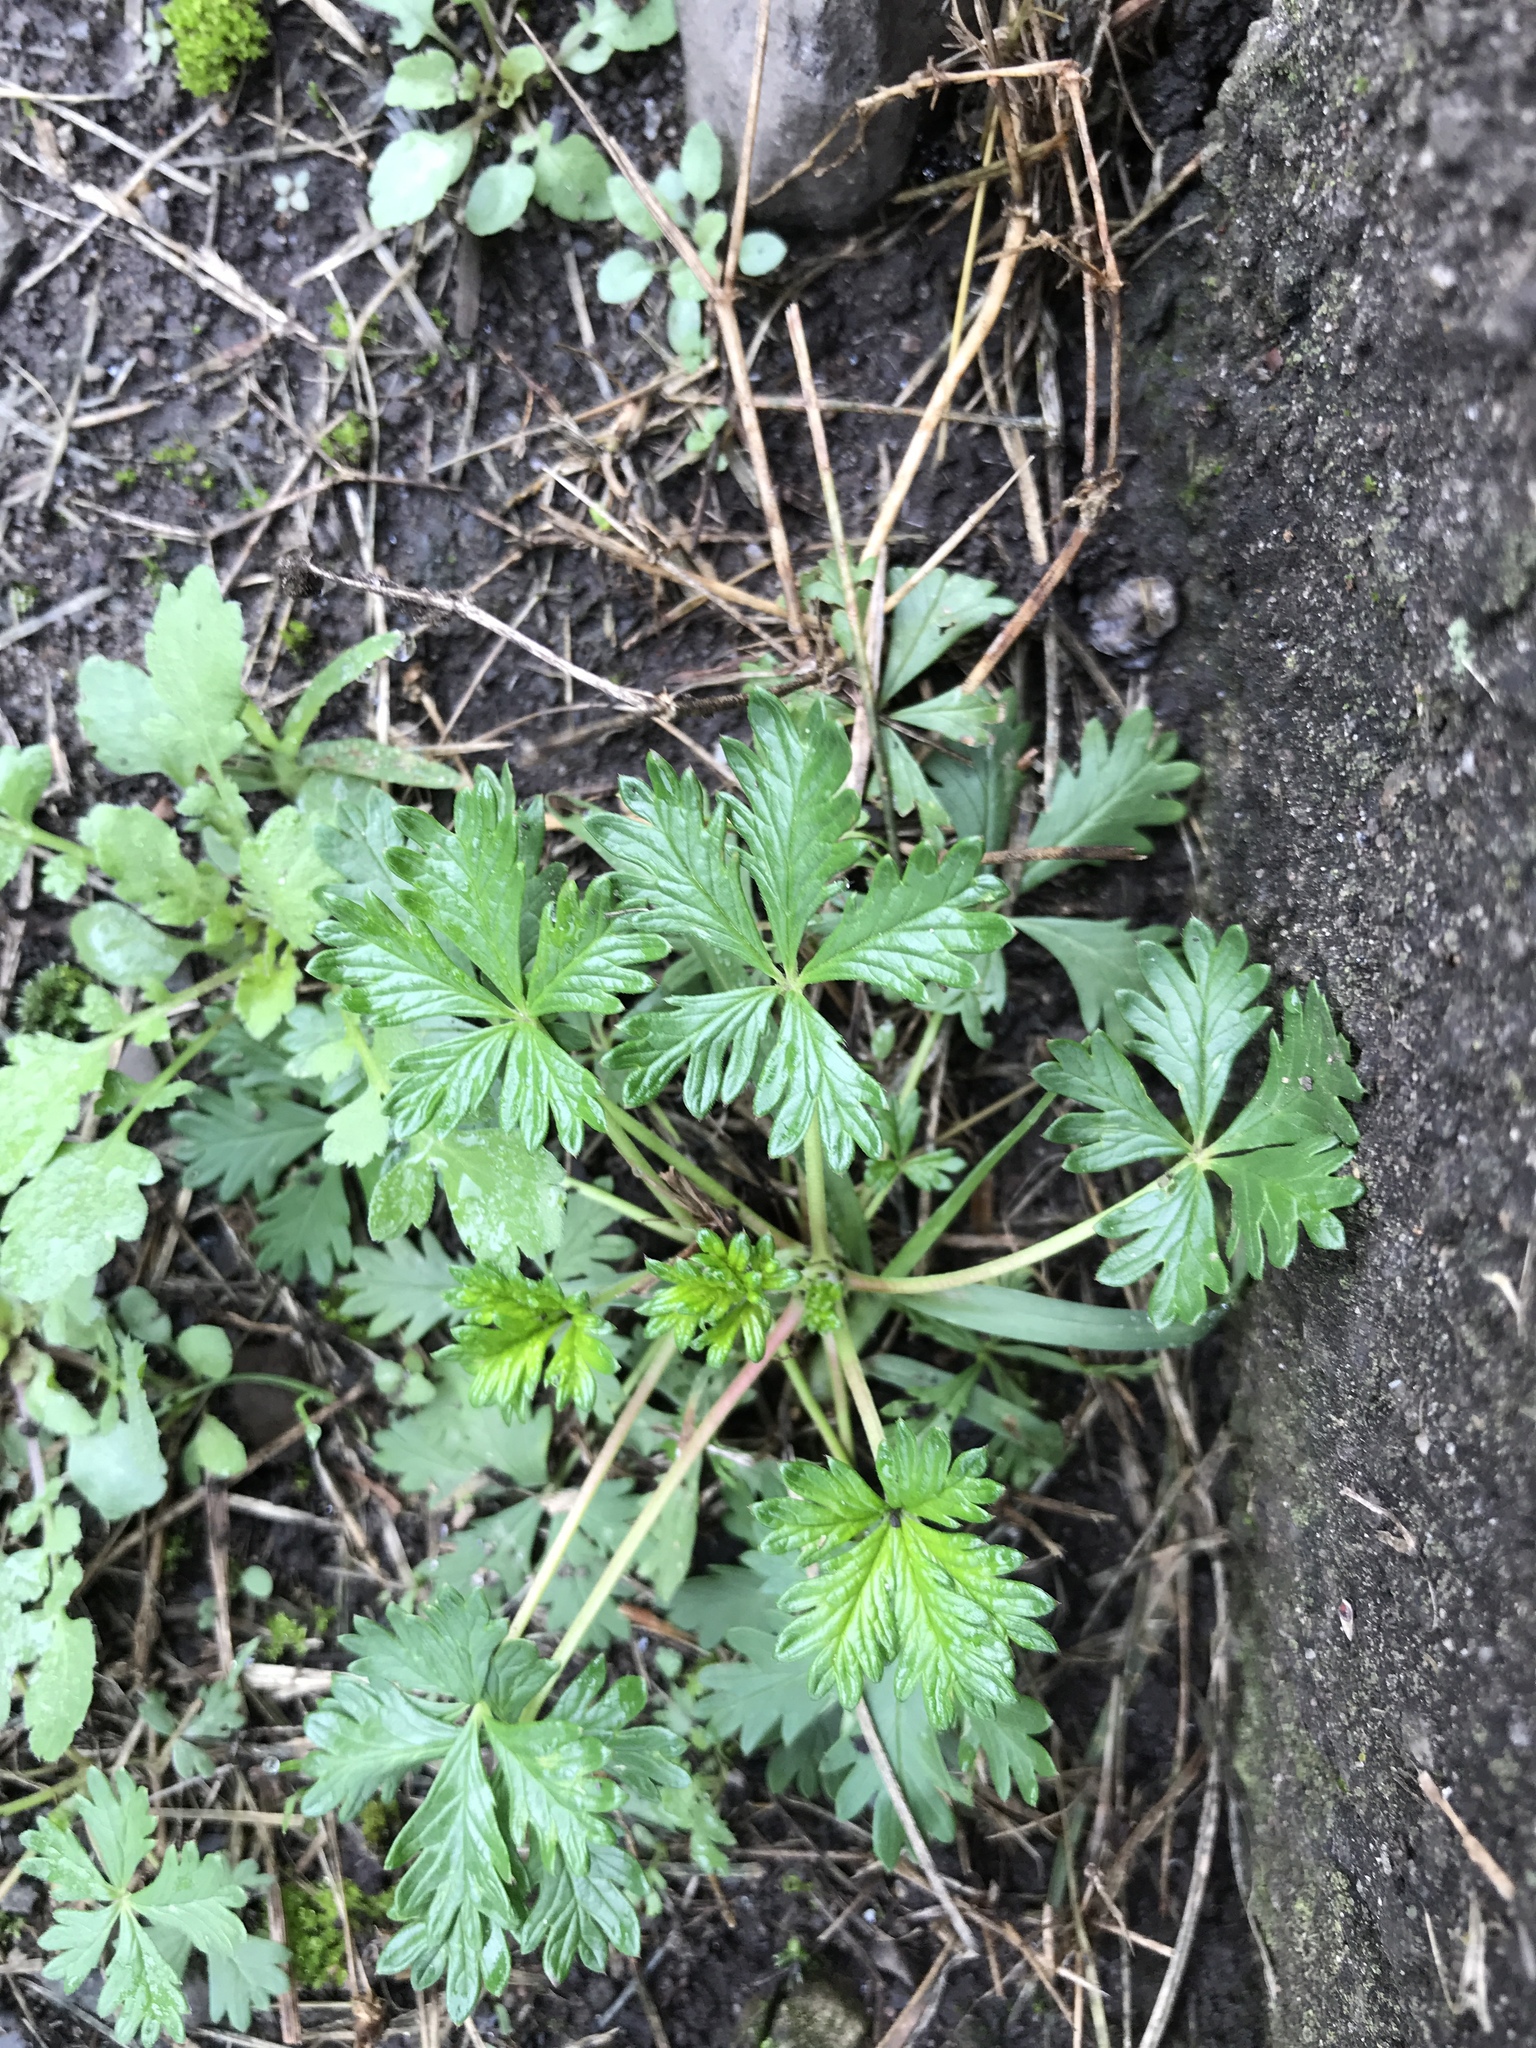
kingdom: Plantae
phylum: Tracheophyta
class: Magnoliopsida
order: Rosales
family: Rosaceae
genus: Potentilla
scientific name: Potentilla argentea
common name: Hoary cinquefoil
